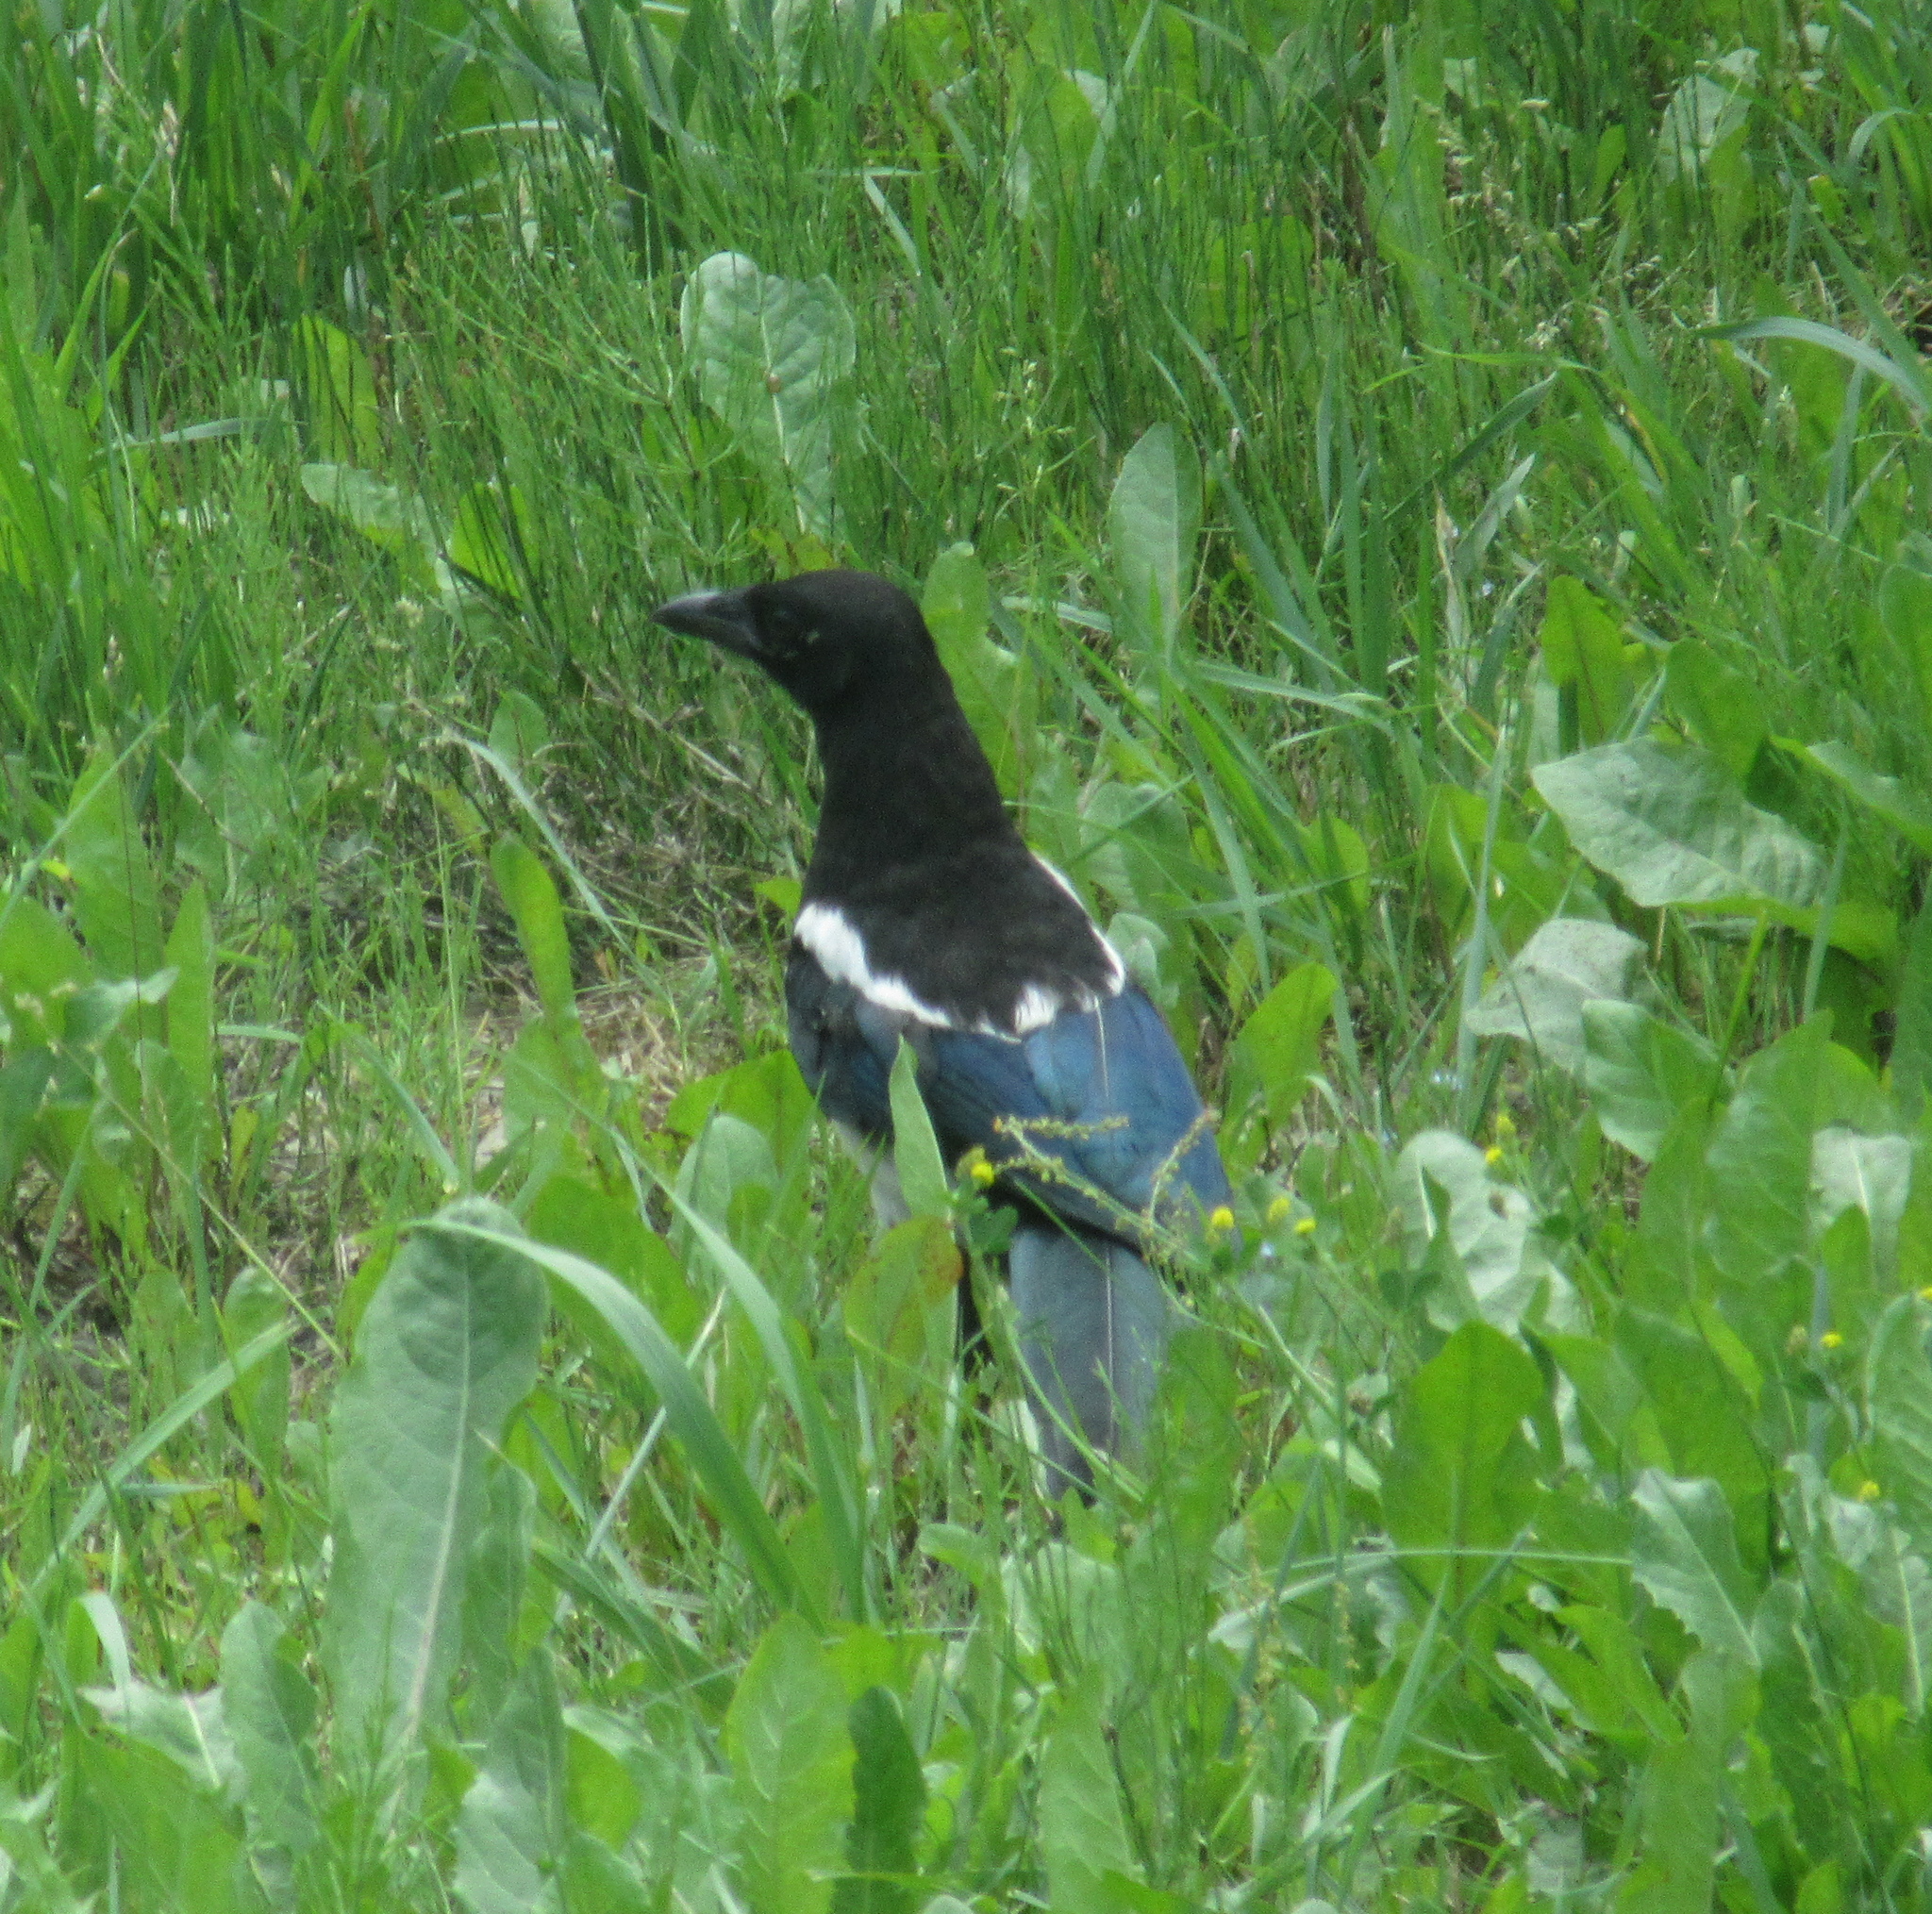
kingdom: Animalia
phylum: Chordata
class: Aves
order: Passeriformes
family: Corvidae
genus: Pica
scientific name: Pica pica
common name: Eurasian magpie
